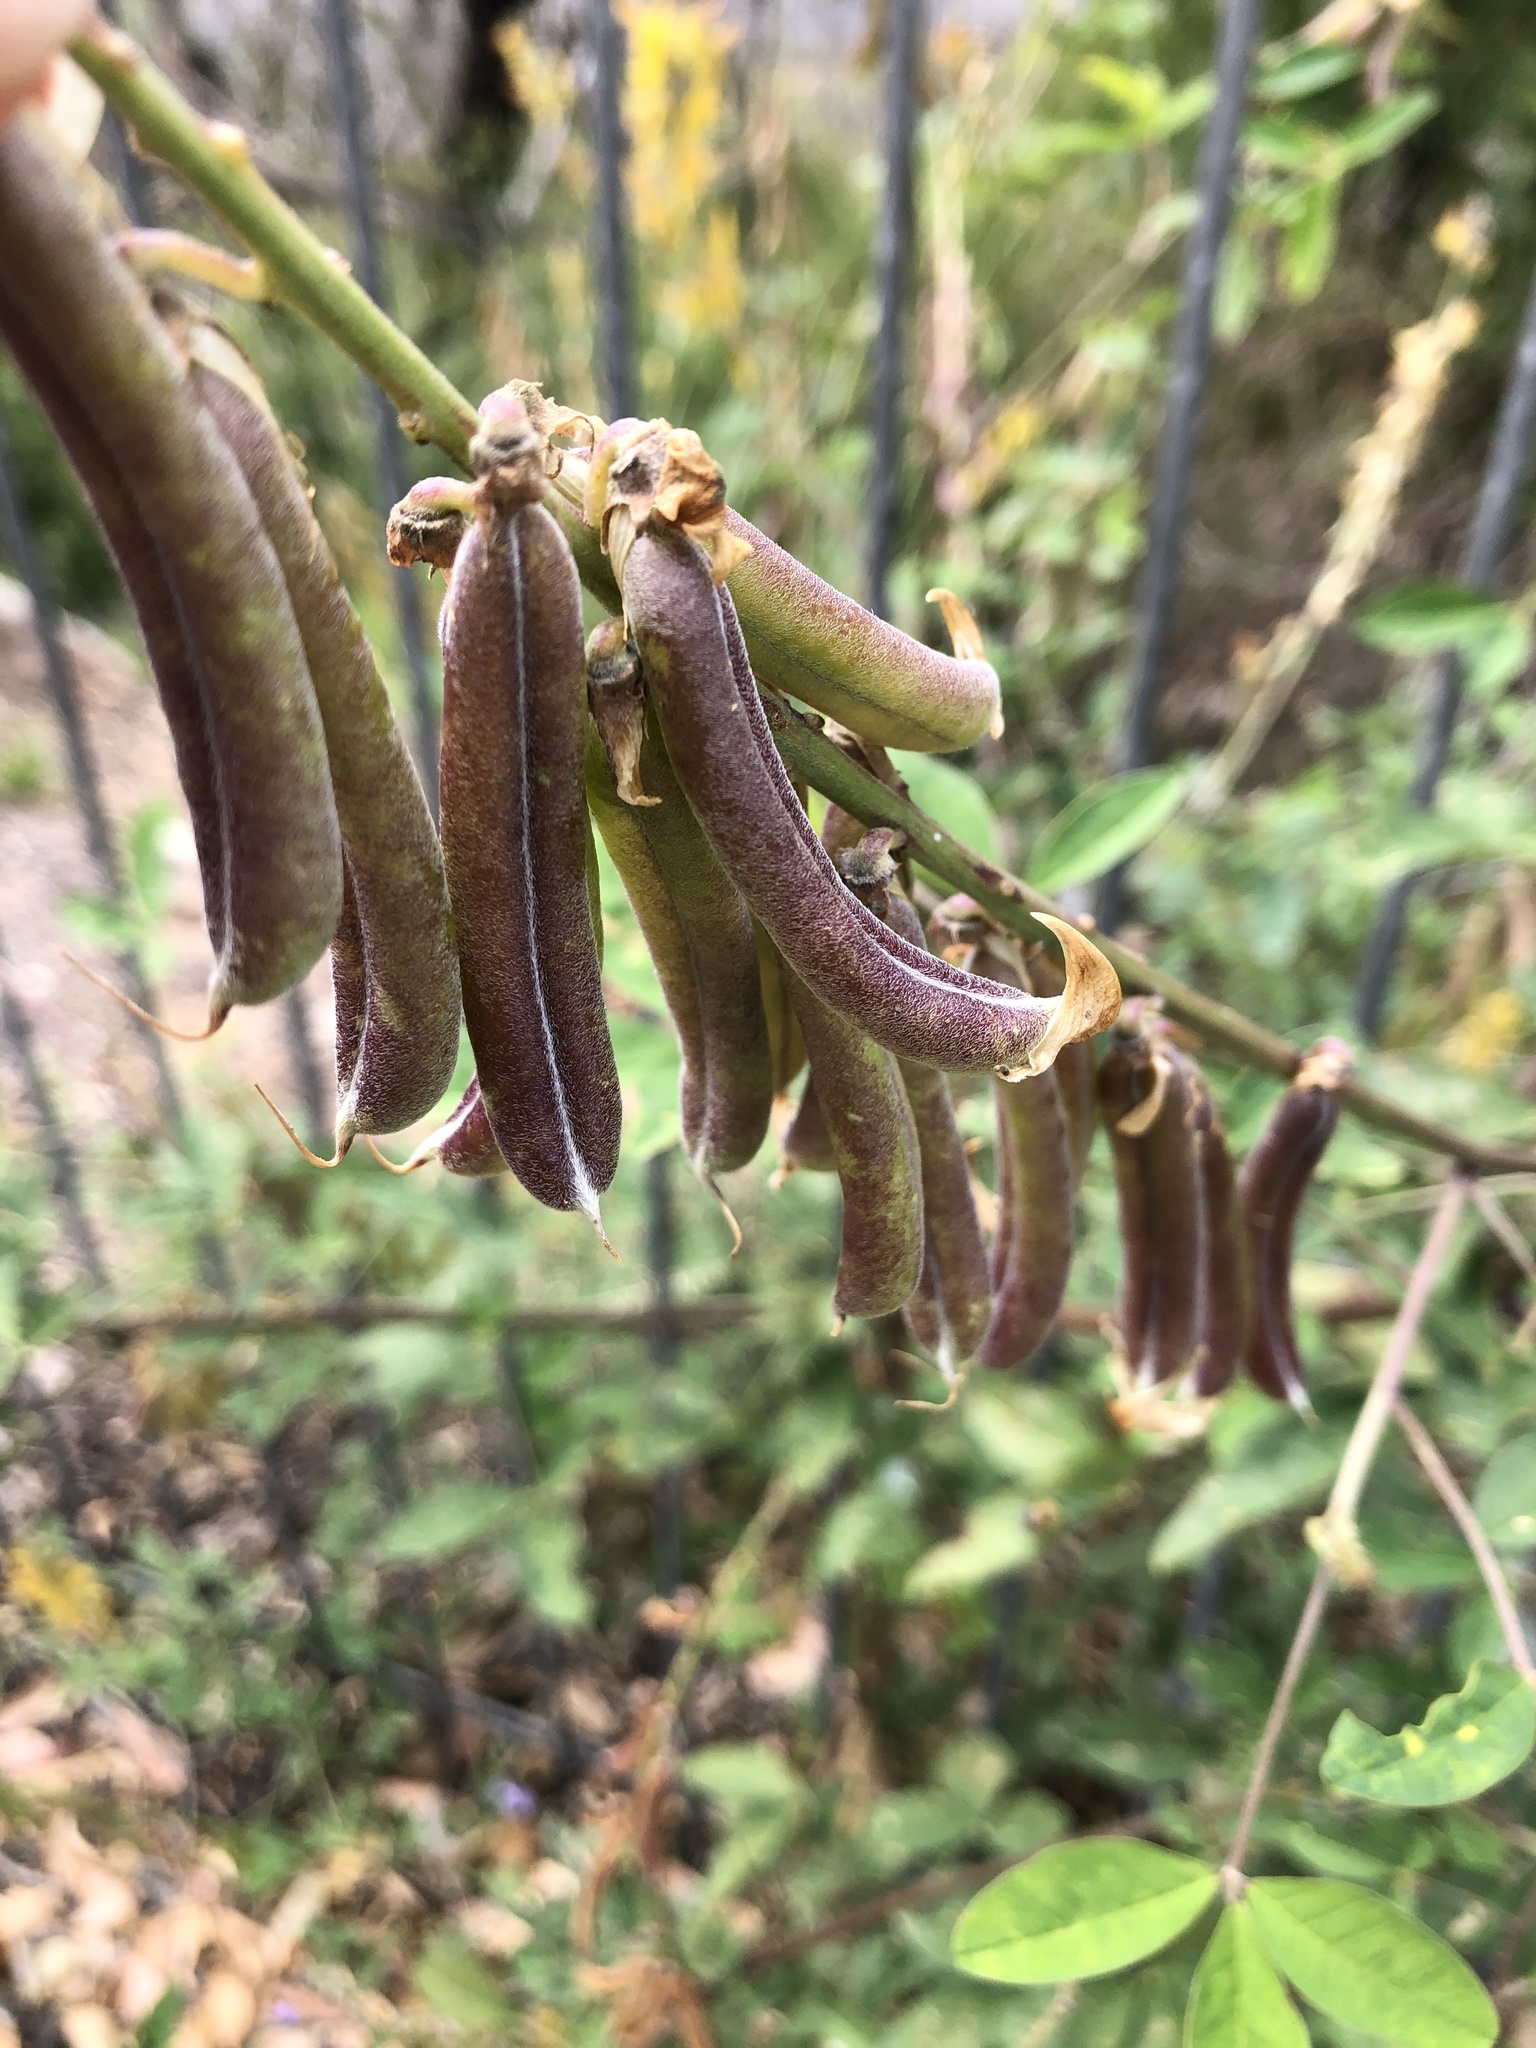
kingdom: Plantae
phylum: Tracheophyta
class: Magnoliopsida
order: Fabales
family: Fabaceae
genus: Crotalaria
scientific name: Crotalaria pallida
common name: Smooth rattlebox
